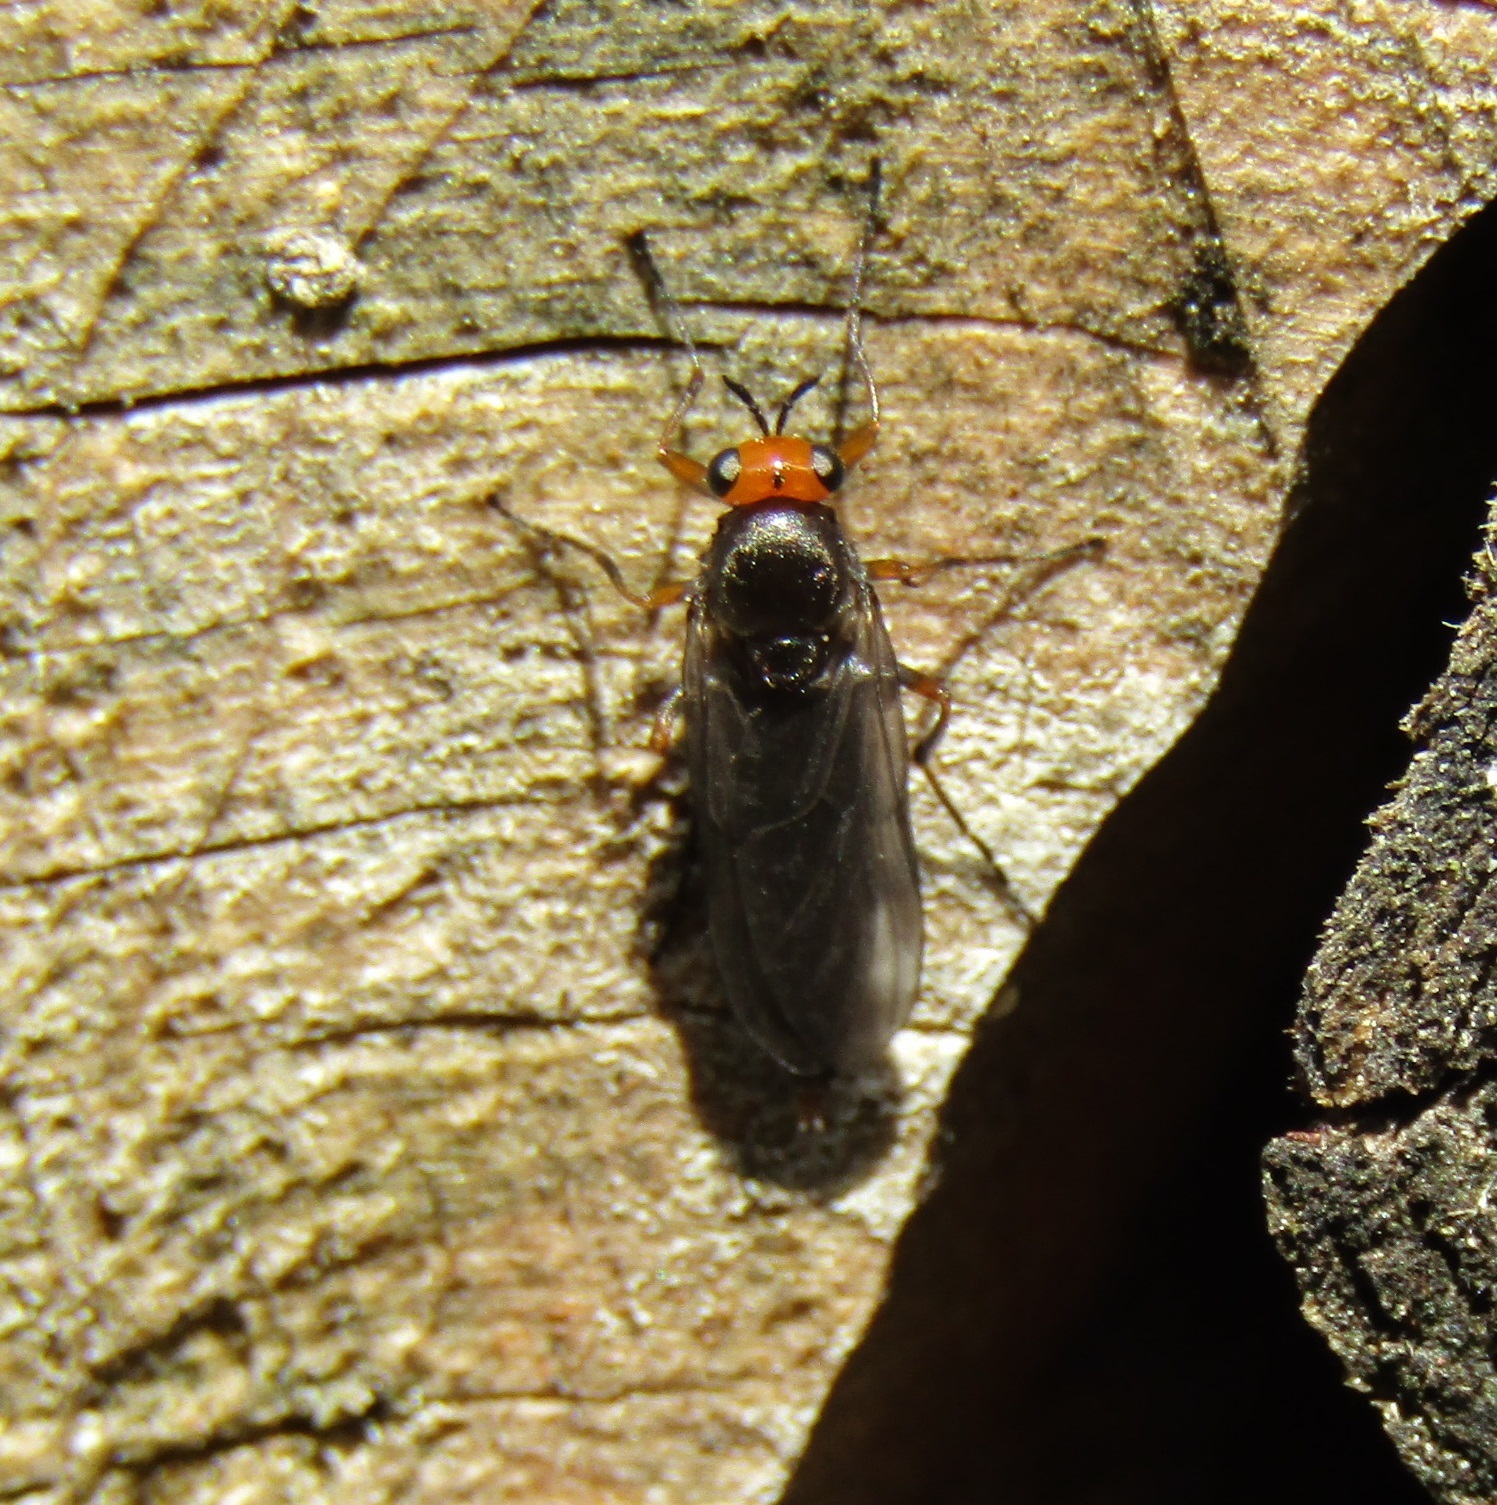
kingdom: Animalia
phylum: Arthropoda
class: Insecta
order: Diptera
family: Stratiomyidae
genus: Inopus
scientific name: Inopus rubriceps
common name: Soldier fly
